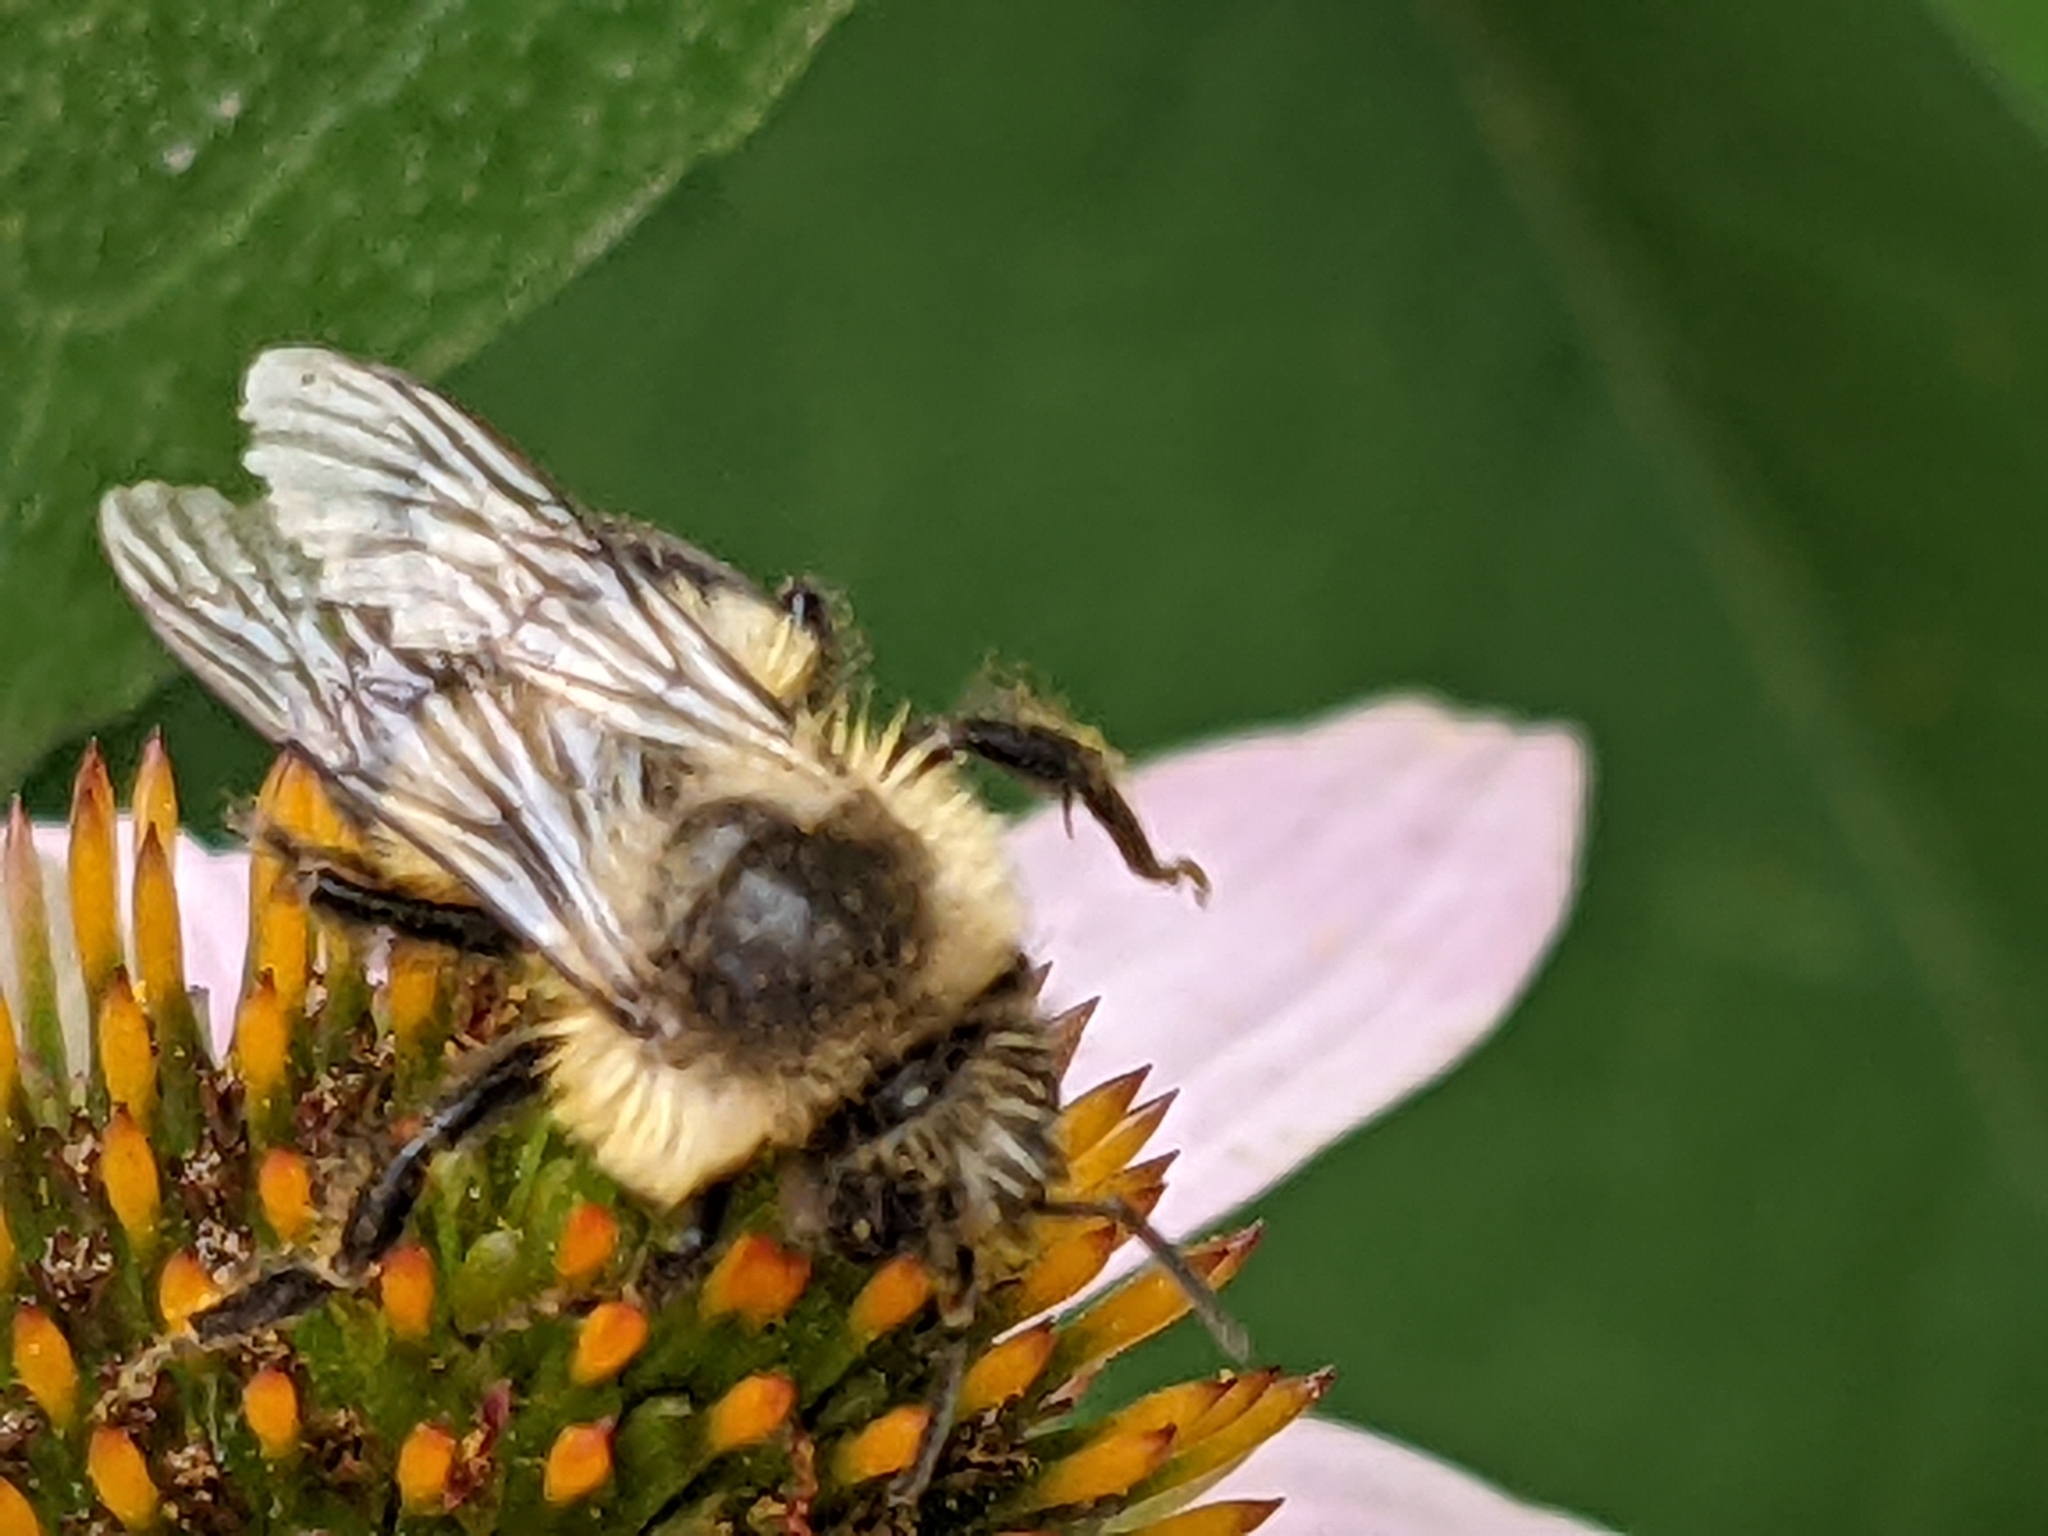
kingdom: Animalia
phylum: Arthropoda
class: Insecta
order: Hymenoptera
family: Apidae
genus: Bombus
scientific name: Bombus impatiens
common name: Common eastern bumble bee
